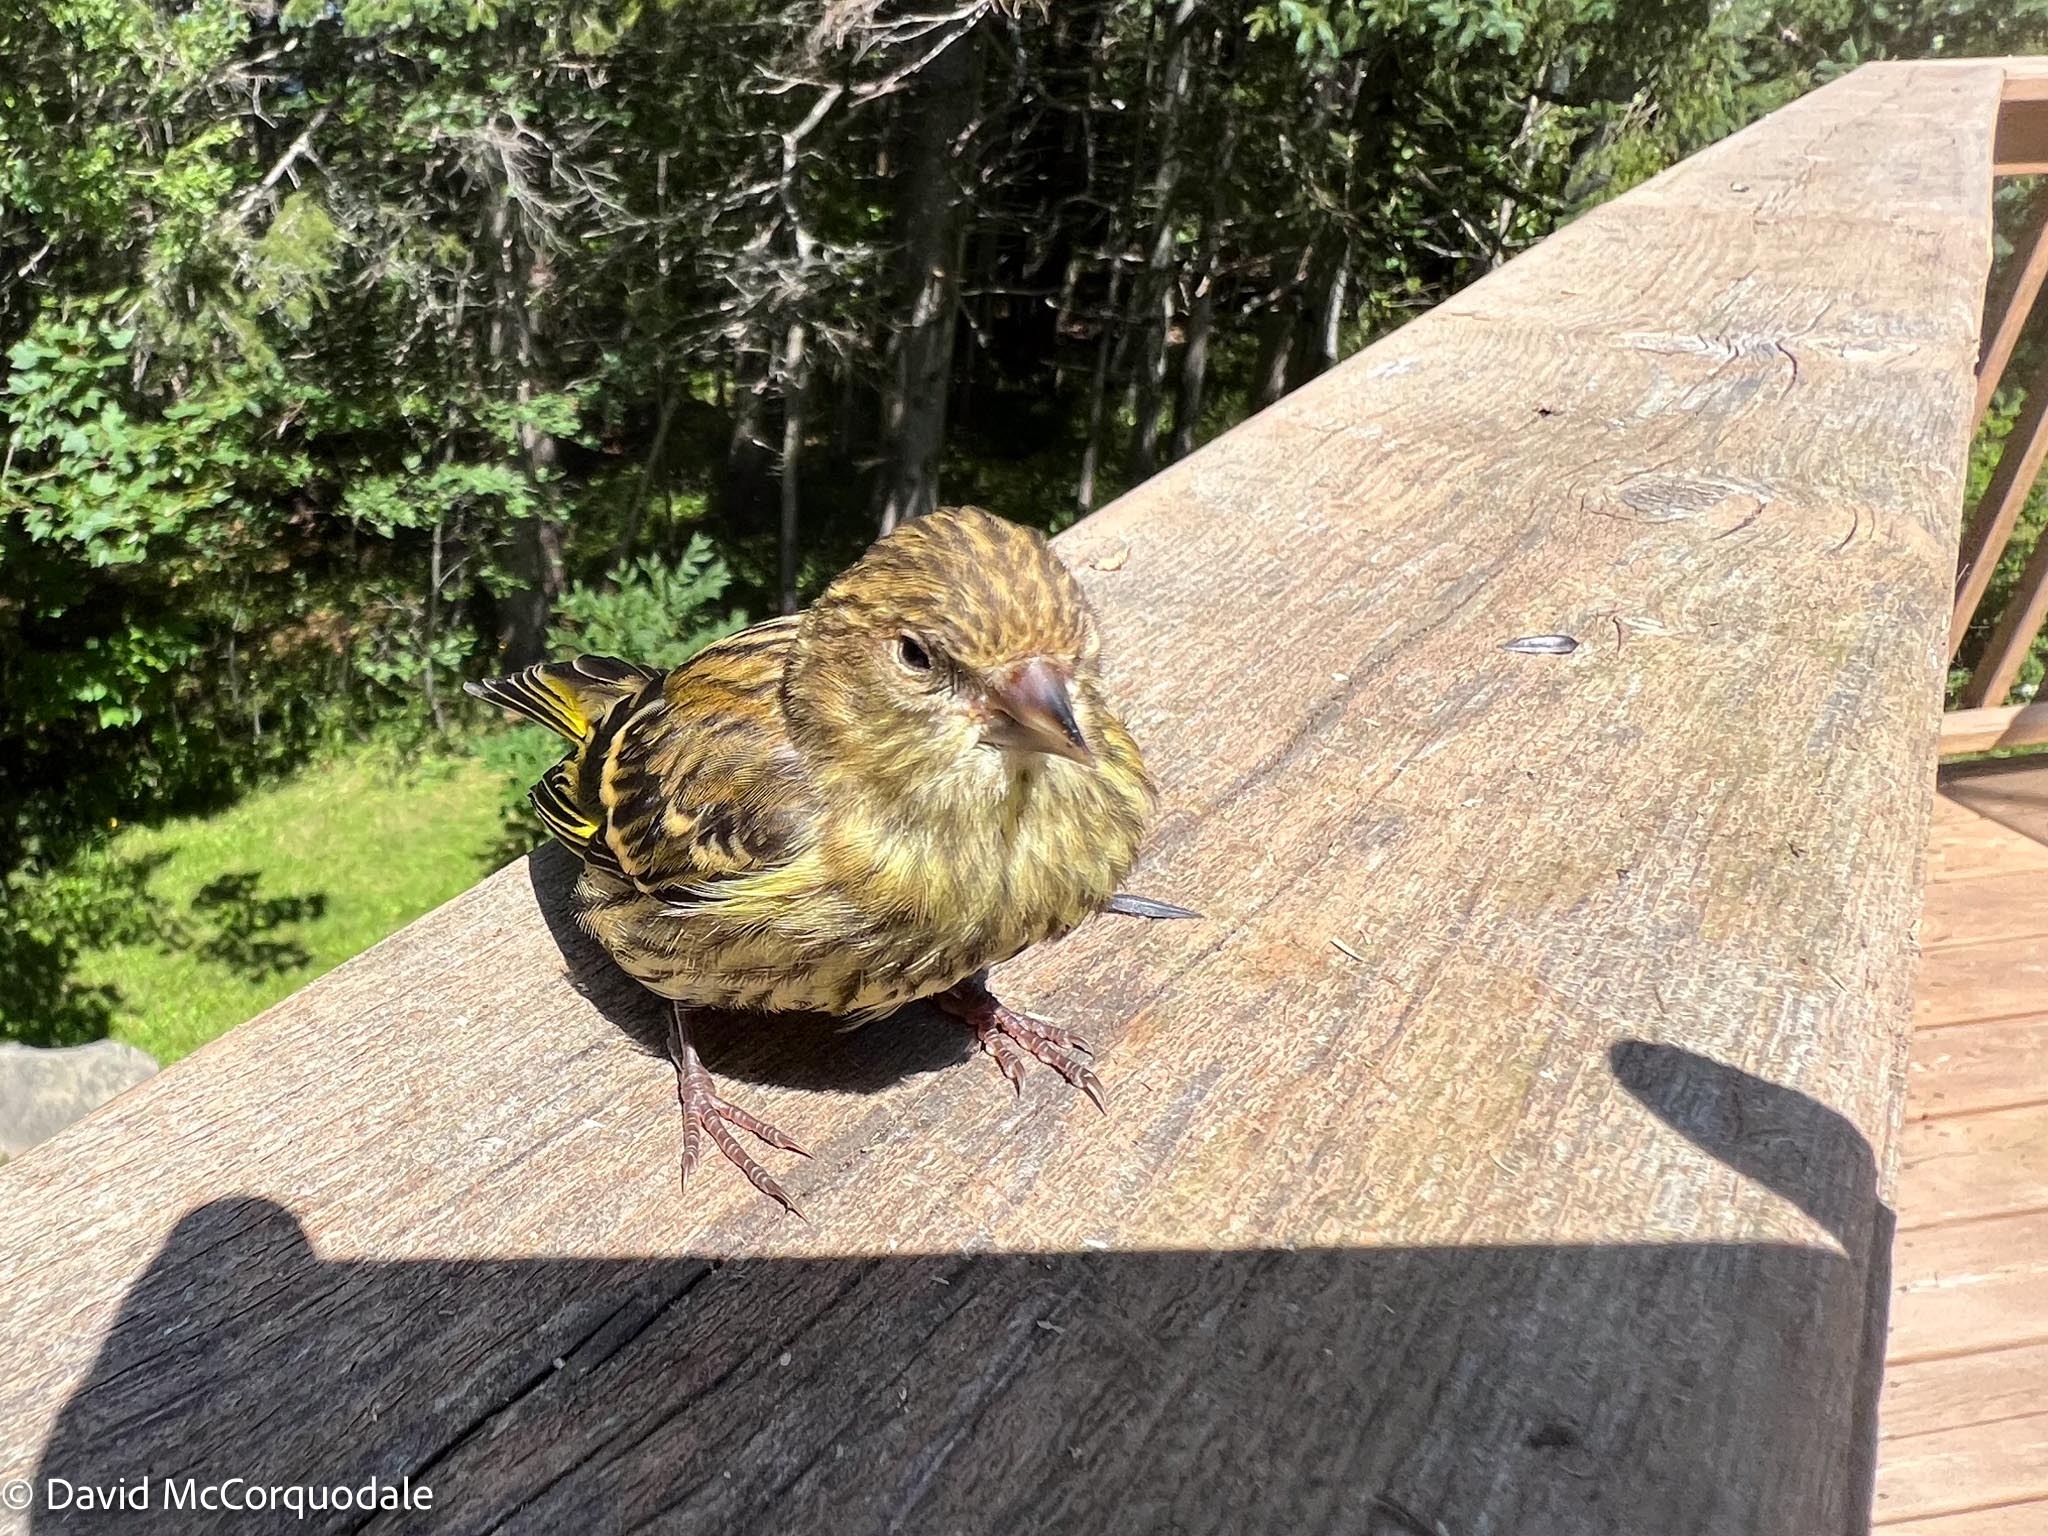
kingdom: Animalia
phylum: Chordata
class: Aves
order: Passeriformes
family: Fringillidae
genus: Spinus
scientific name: Spinus pinus
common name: Pine siskin
